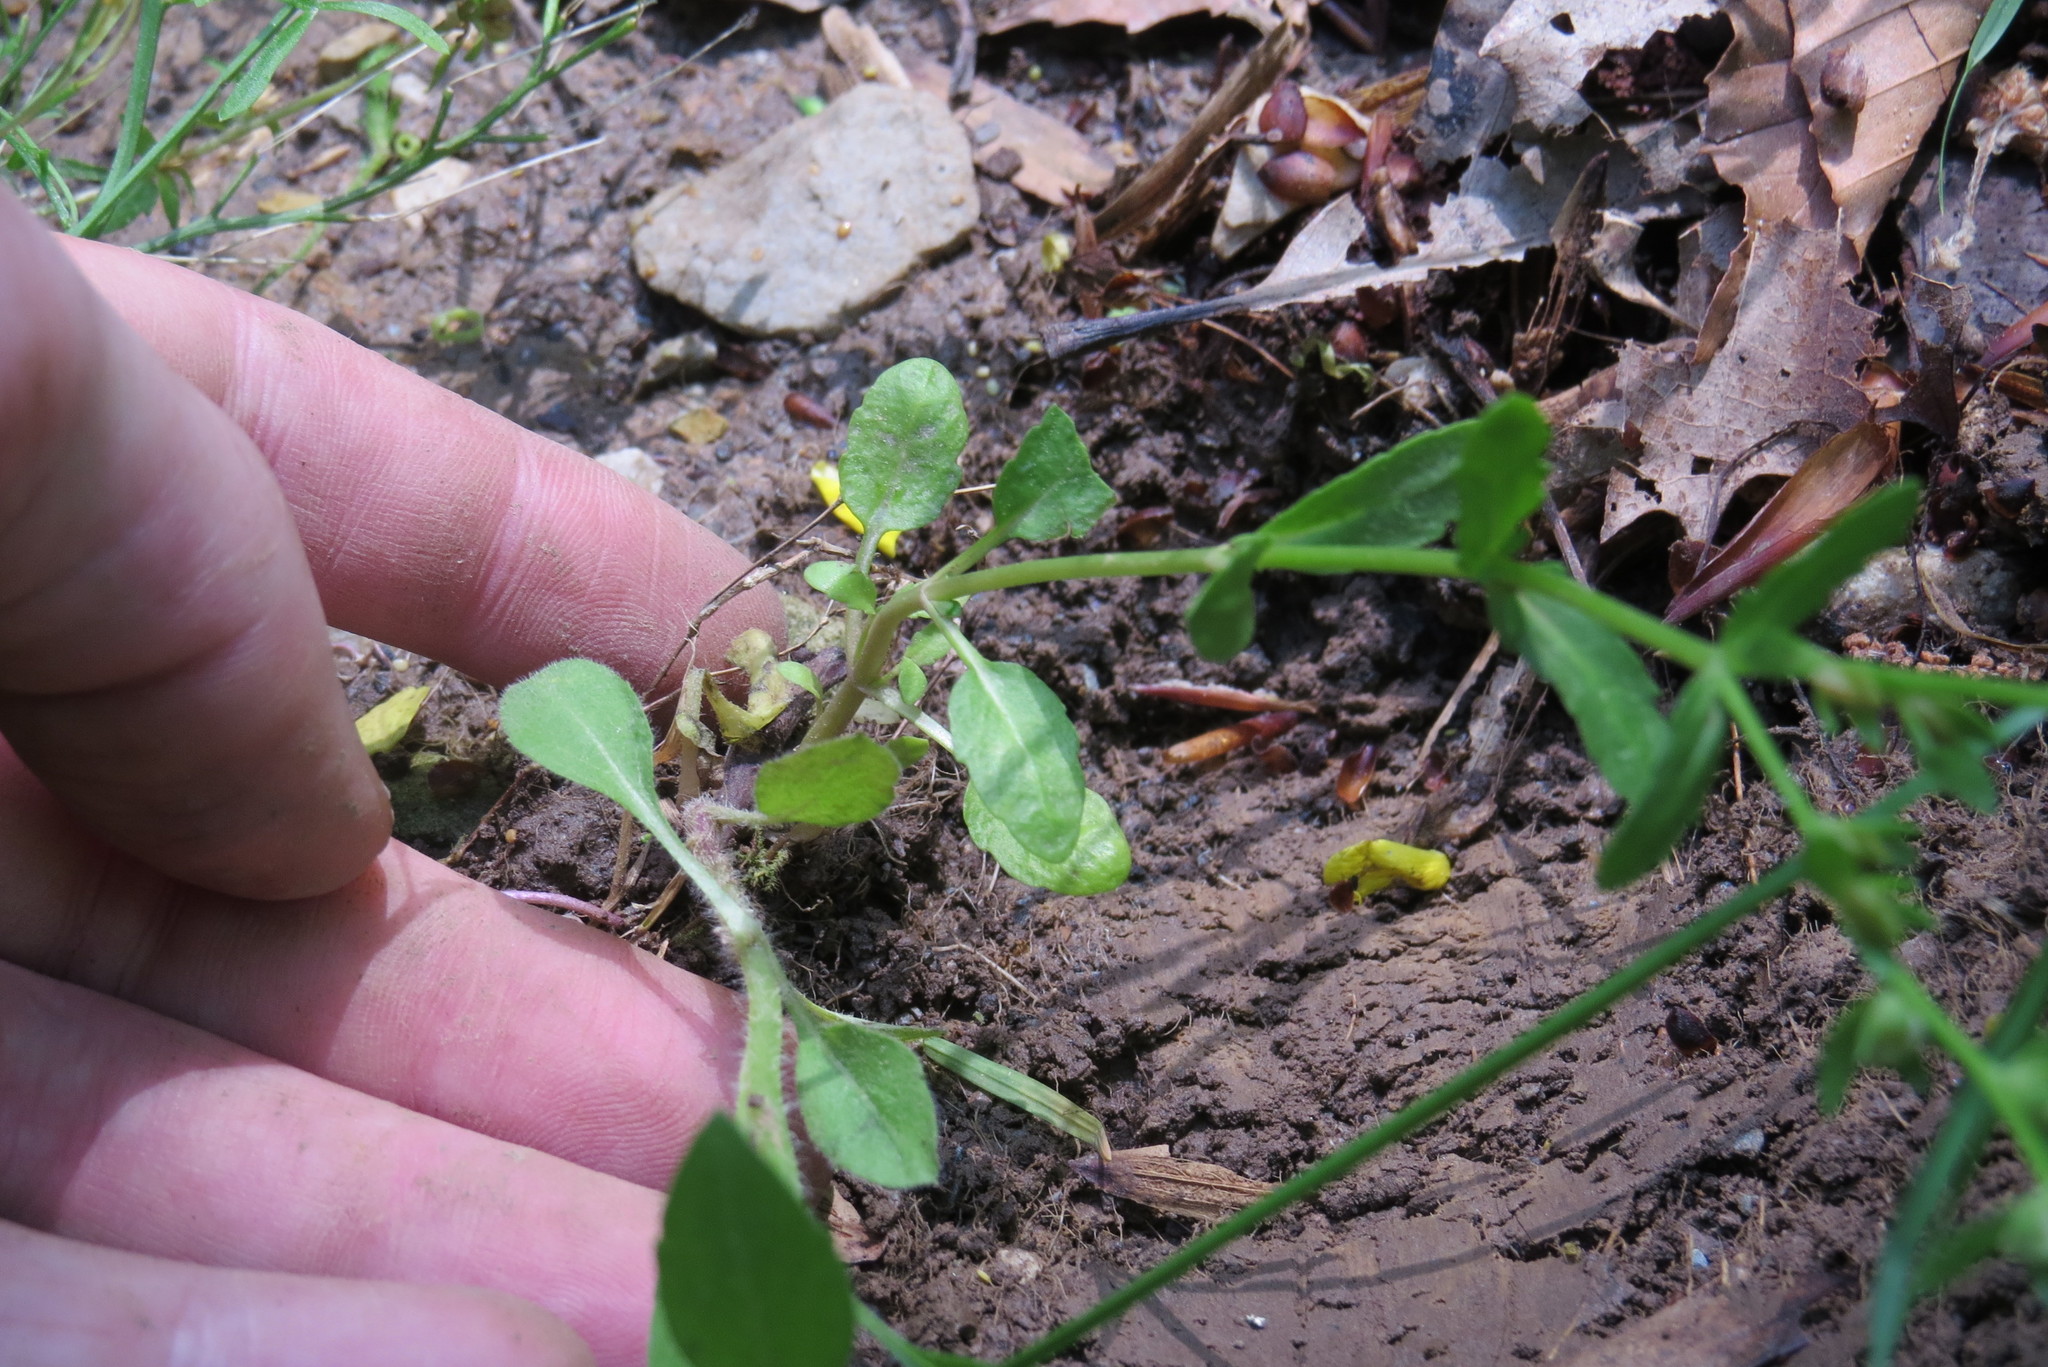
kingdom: Plantae
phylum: Tracheophyta
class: Magnoliopsida
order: Lamiales
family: Plantaginaceae
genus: Veronica
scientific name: Veronica peregrina
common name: Neckweed
